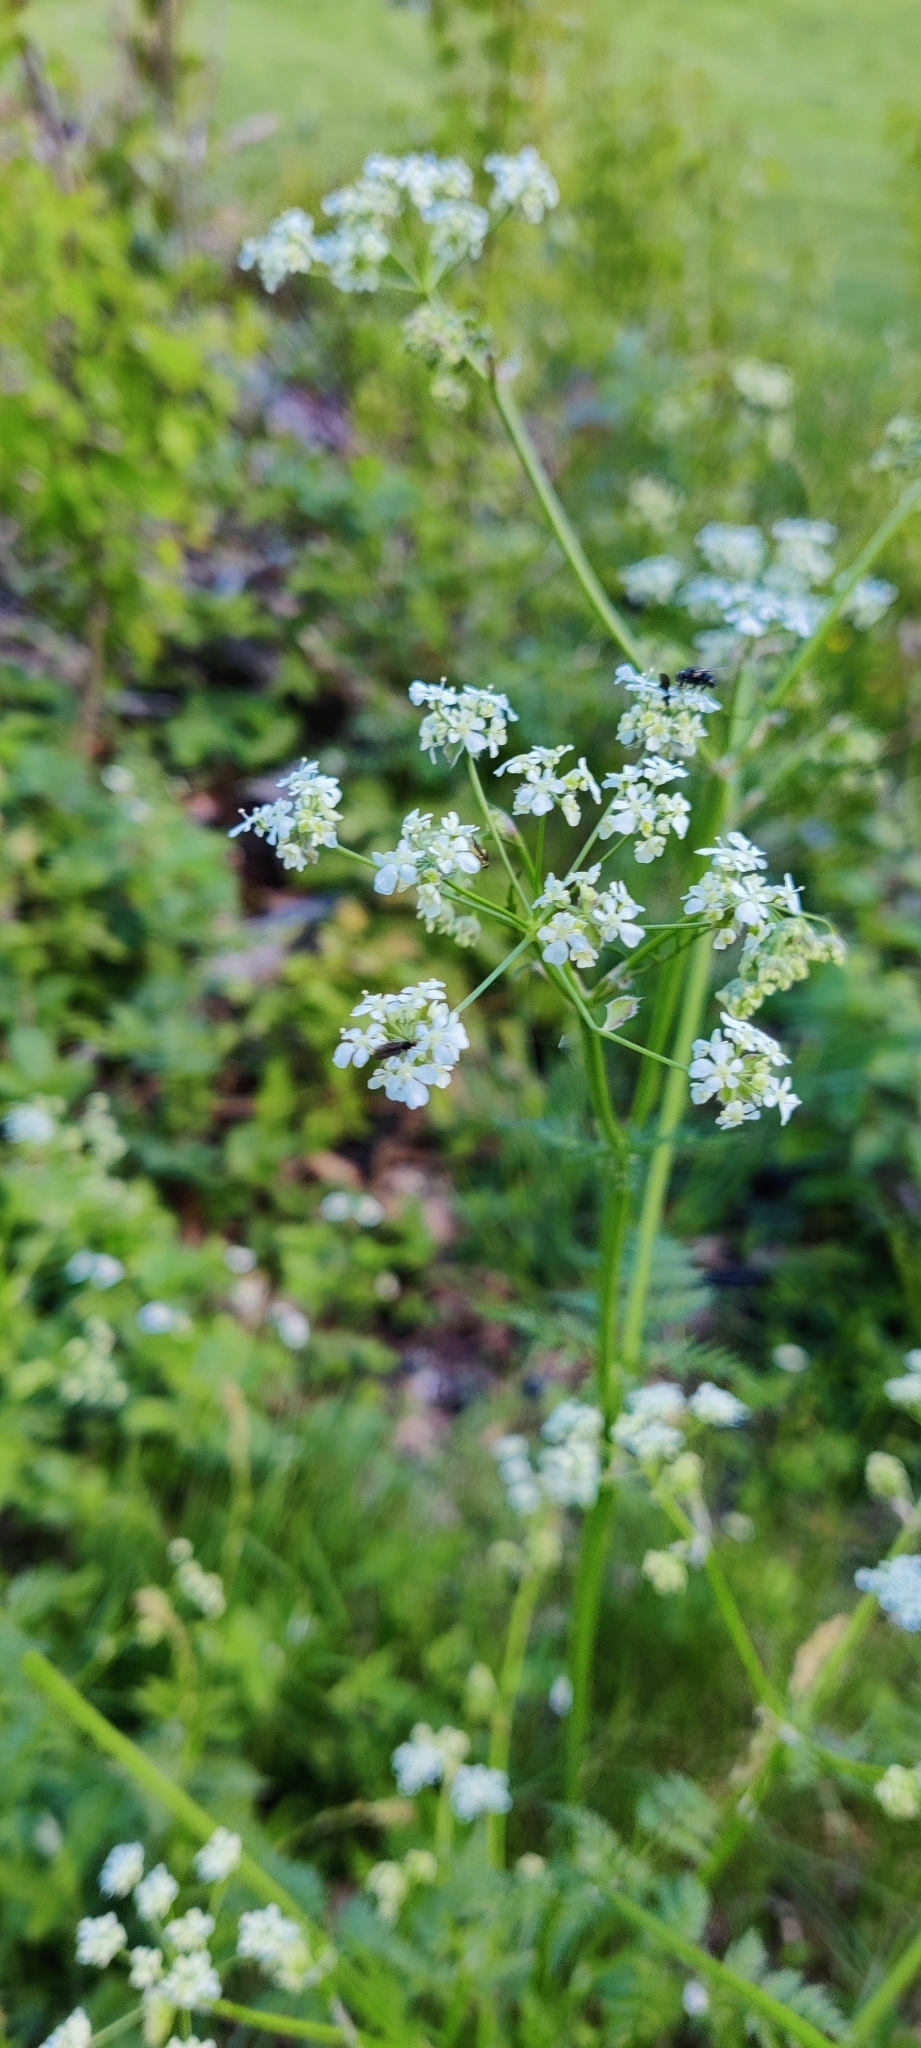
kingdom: Plantae
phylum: Tracheophyta
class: Magnoliopsida
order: Apiales
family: Apiaceae
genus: Anthriscus
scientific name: Anthriscus sylvestris
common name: Cow parsley
